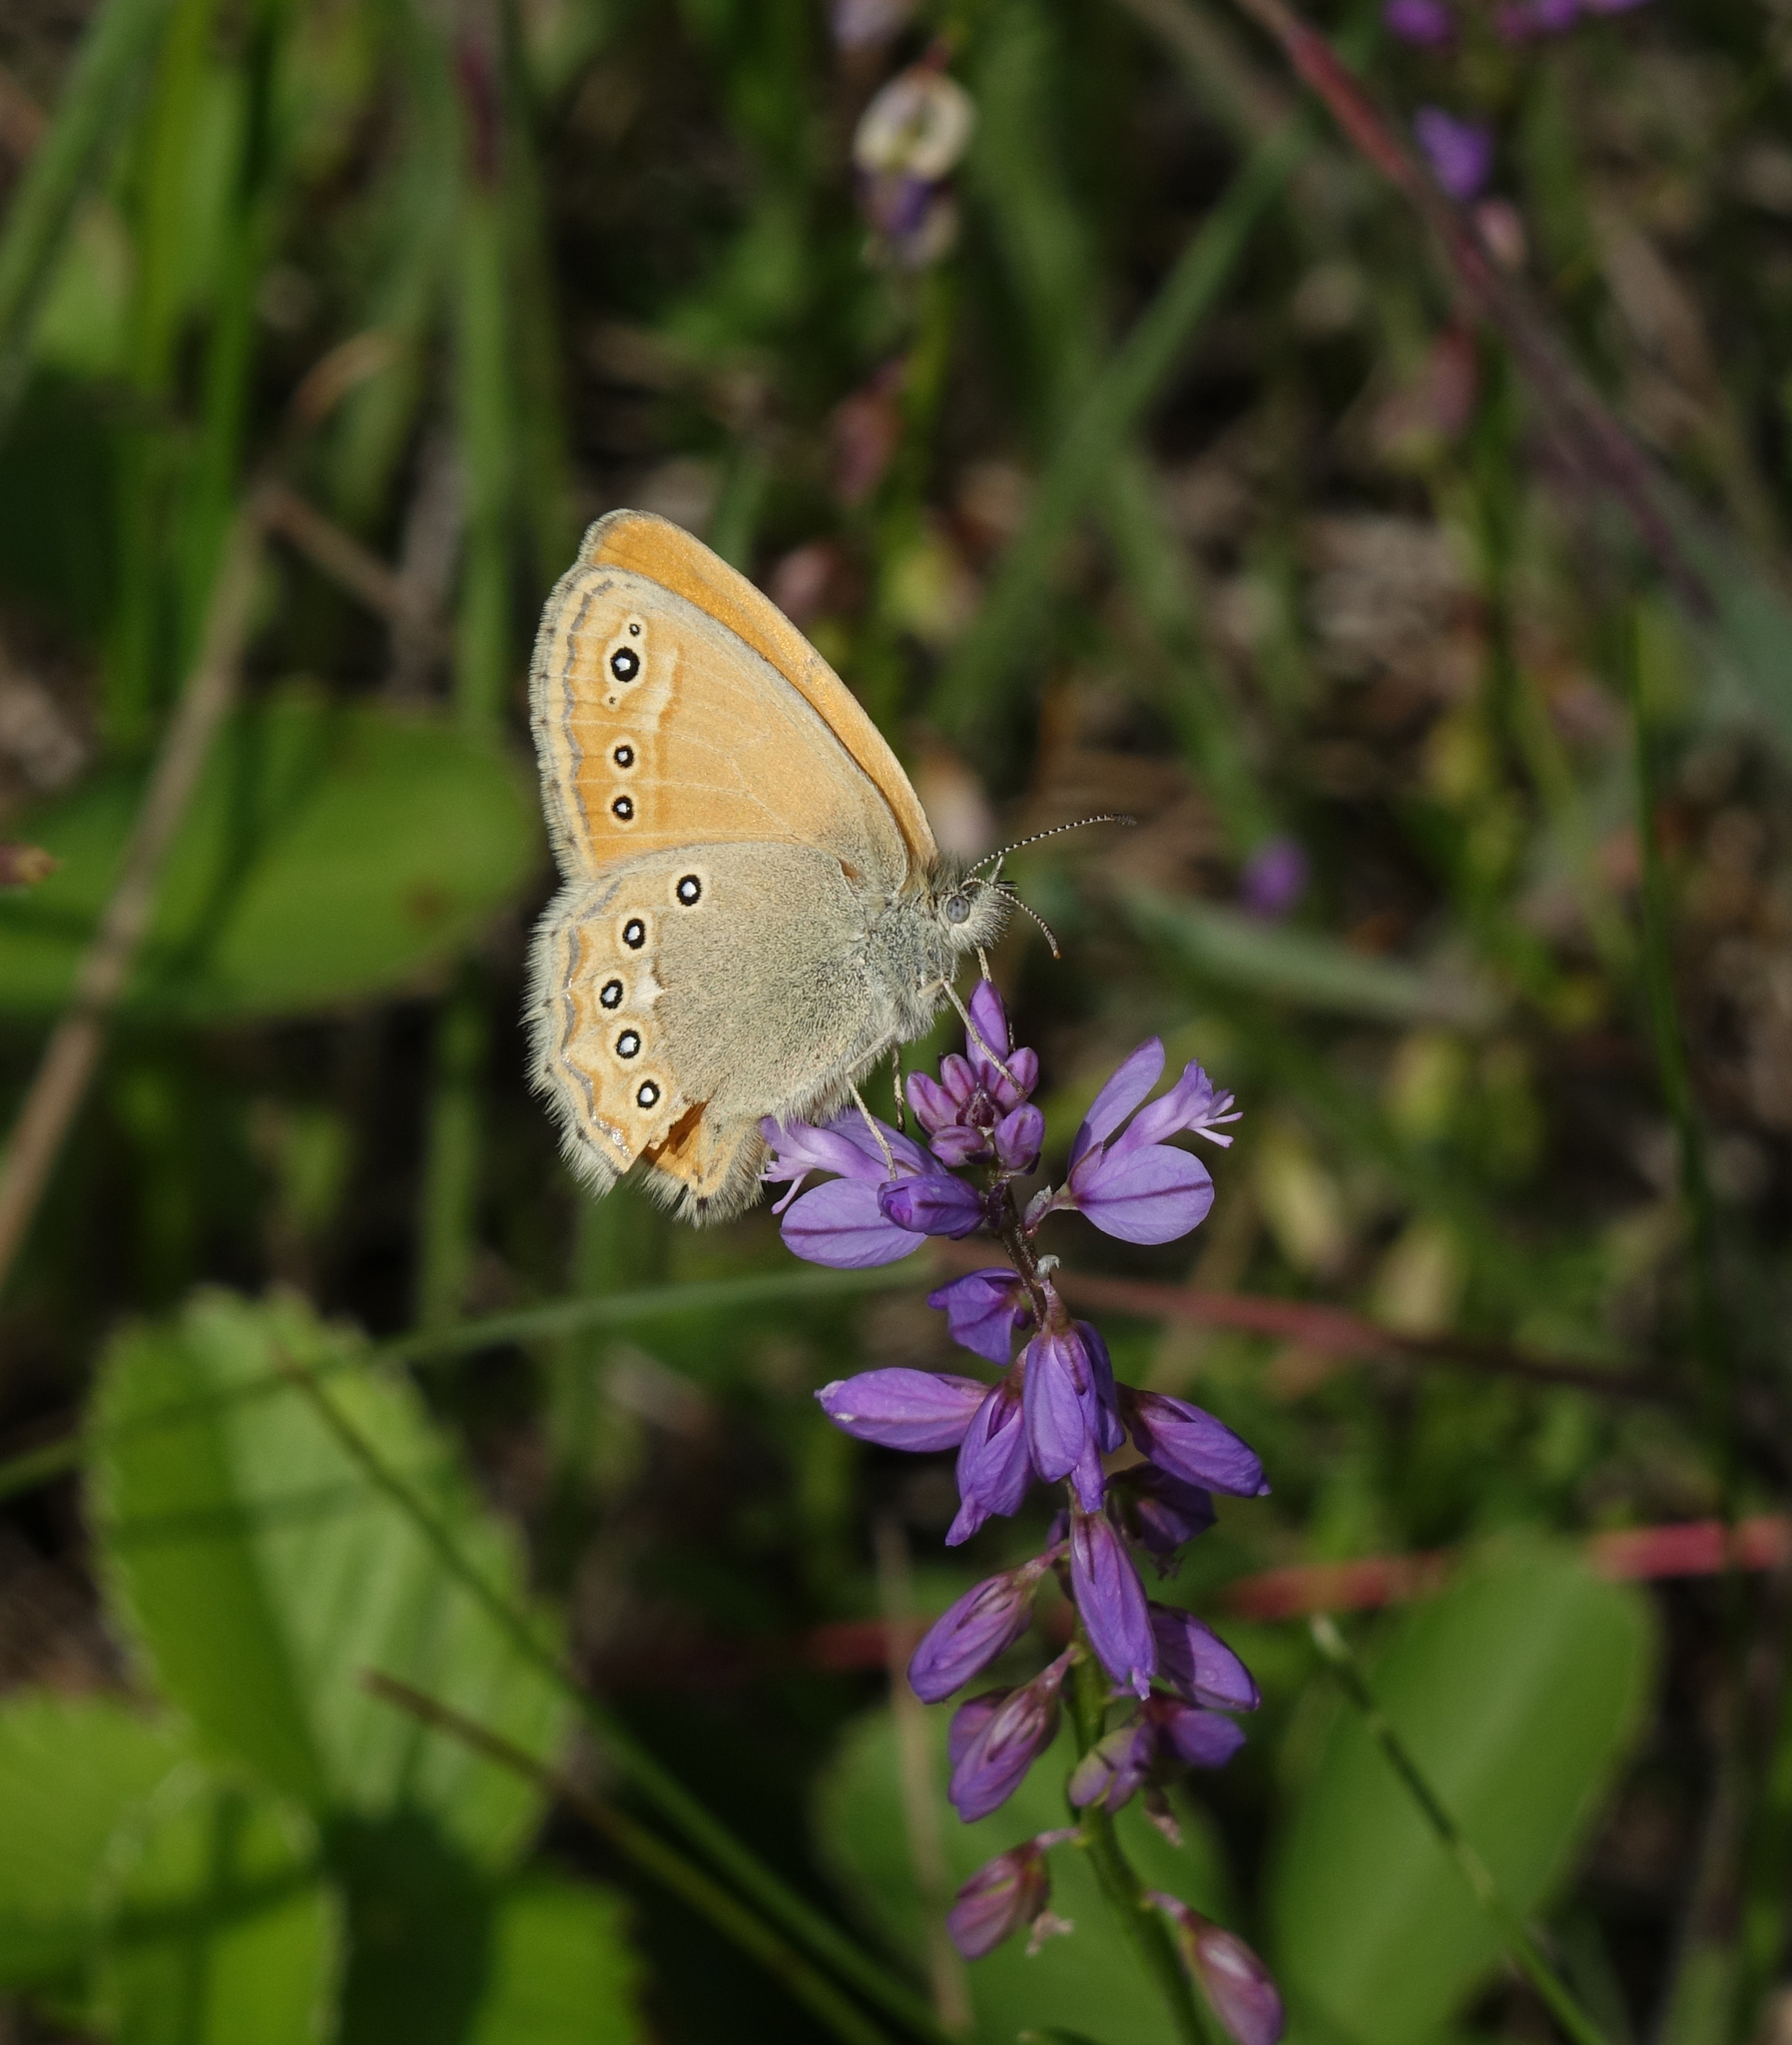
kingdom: Plantae
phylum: Tracheophyta
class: Magnoliopsida
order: Fabales
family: Polygalaceae
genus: Polygala
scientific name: Polygala comosa
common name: Tufted milkwort
